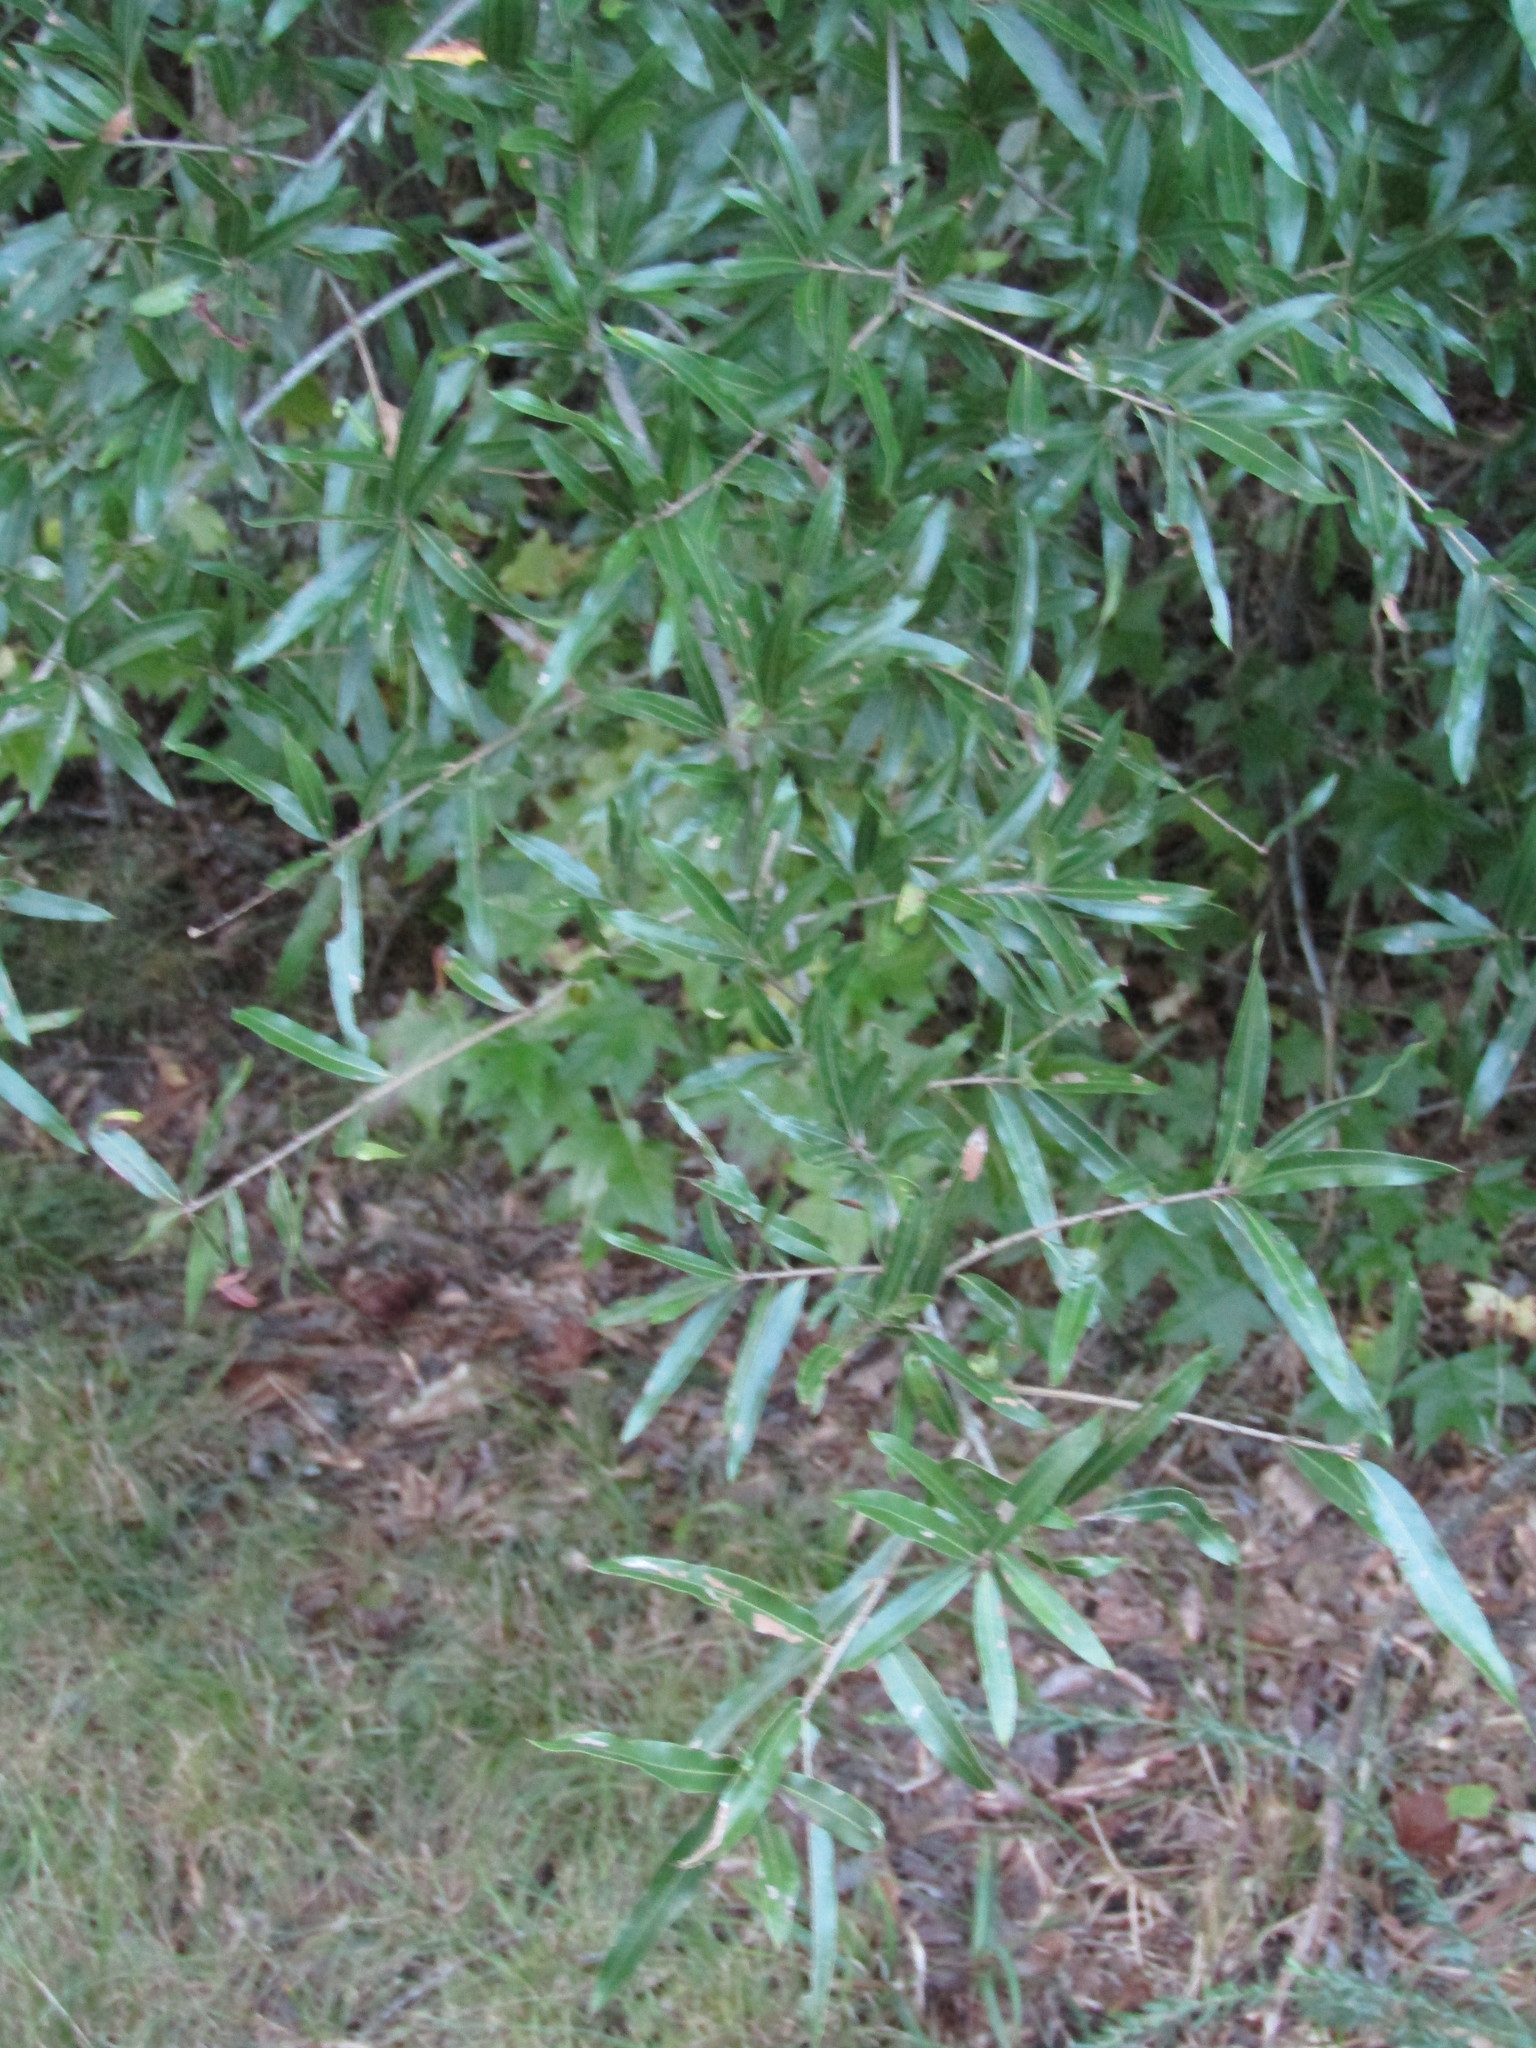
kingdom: Plantae
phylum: Tracheophyta
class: Magnoliopsida
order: Fagales
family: Fagaceae
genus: Quercus
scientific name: Quercus phellos
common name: Willow oak
